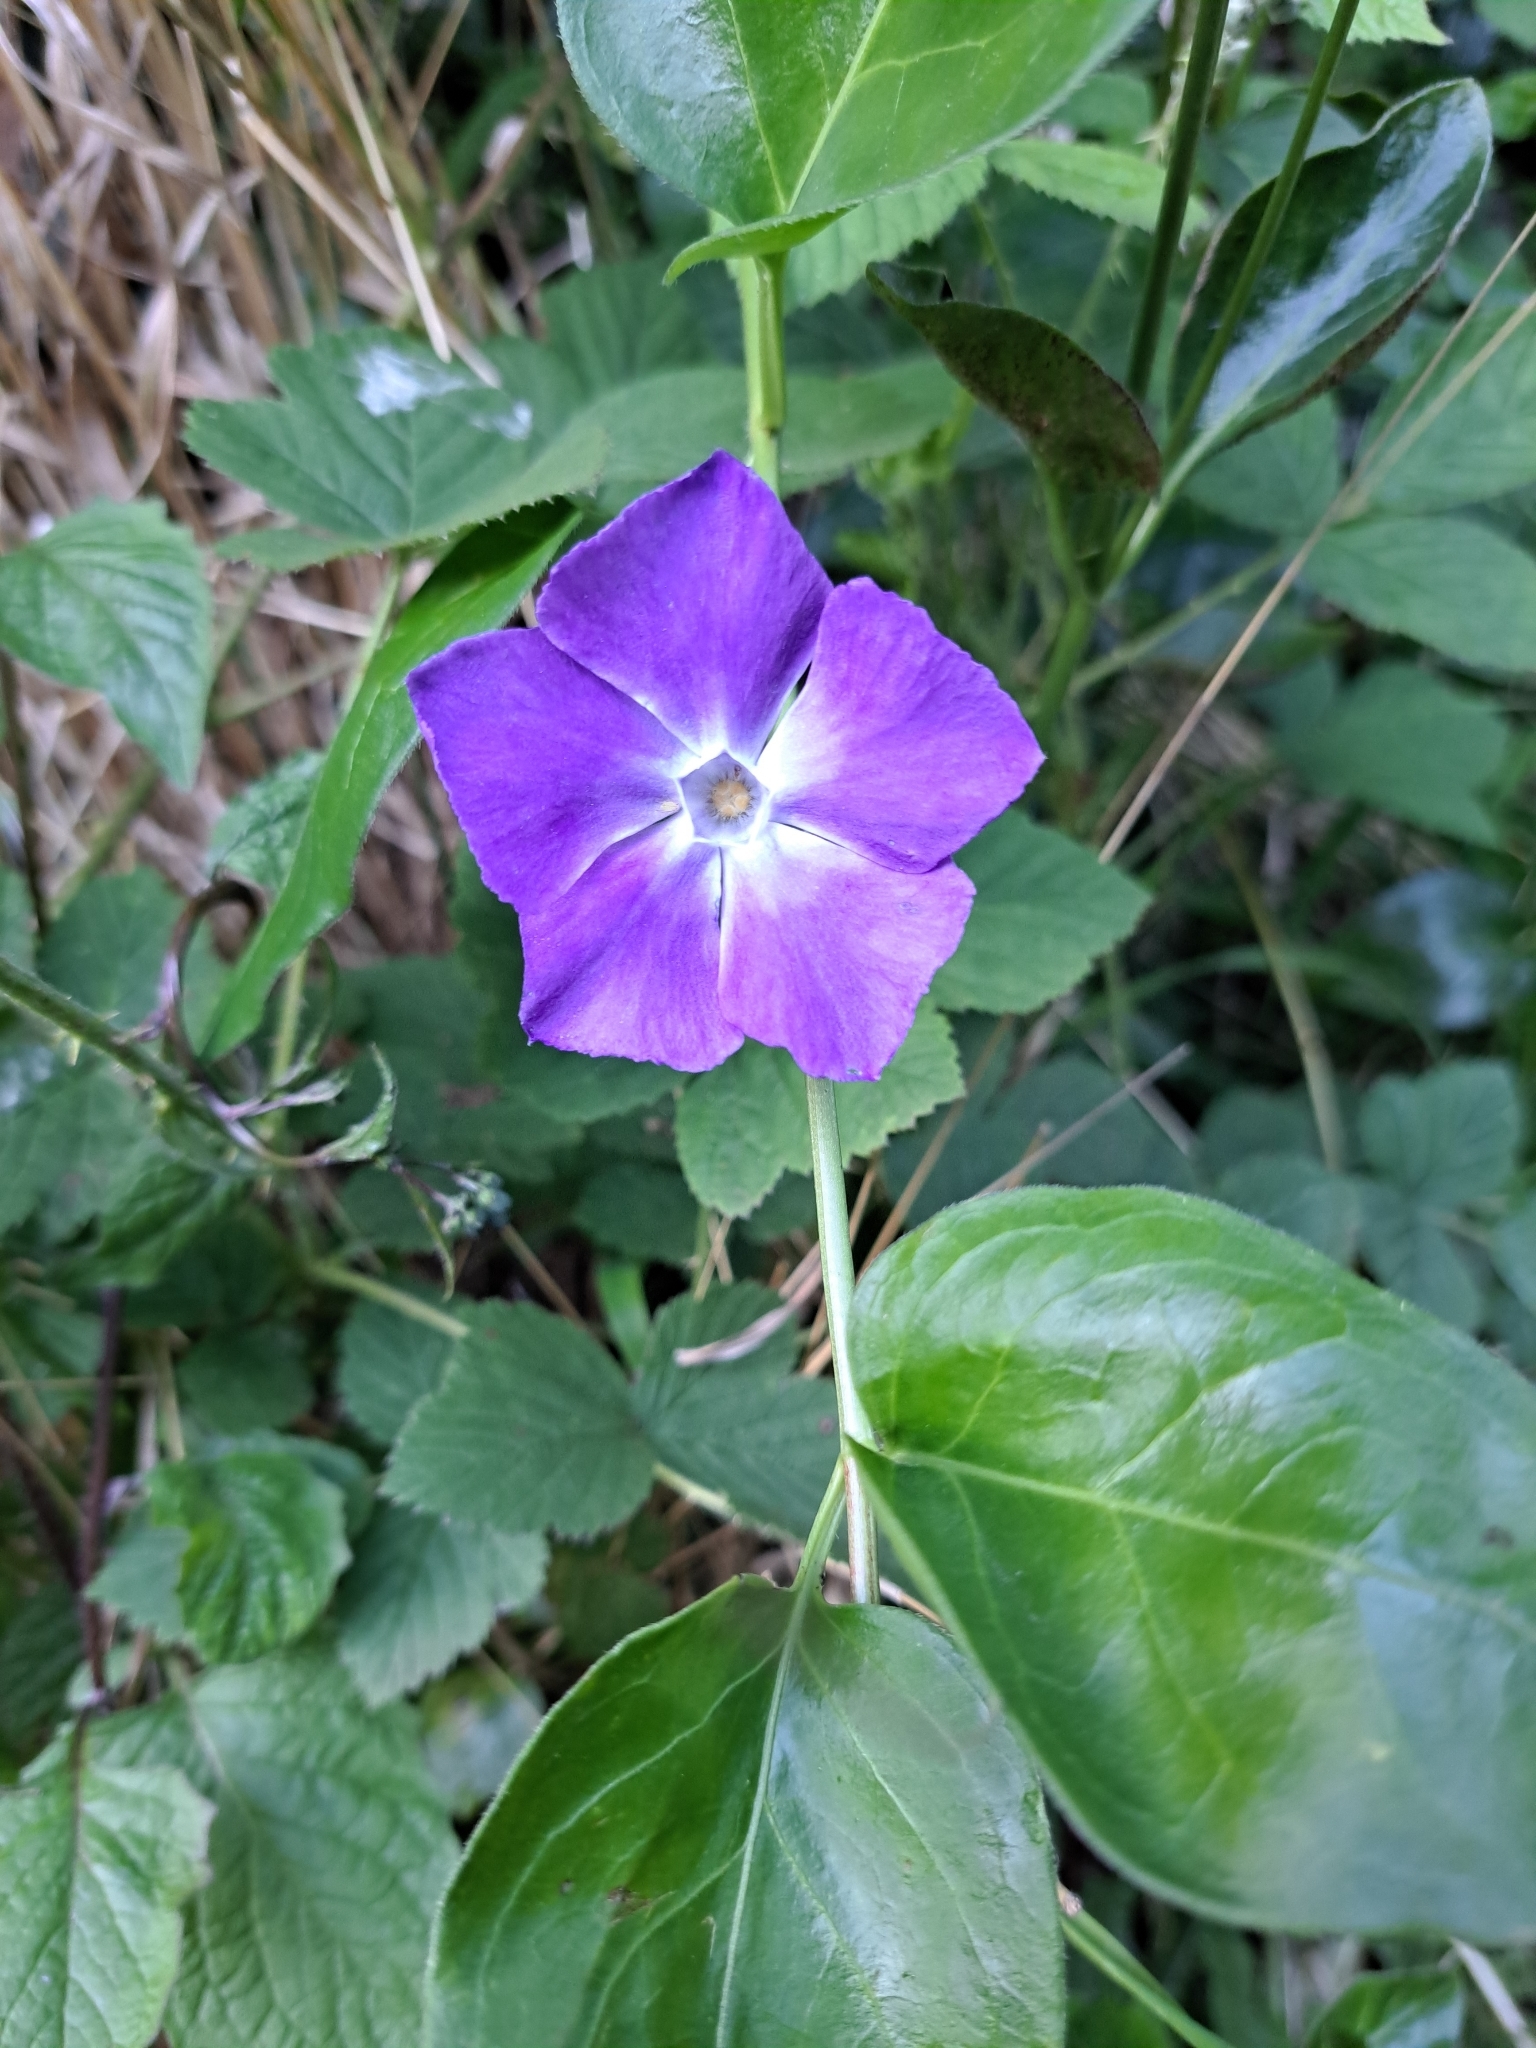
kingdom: Plantae
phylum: Tracheophyta
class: Magnoliopsida
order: Gentianales
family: Apocynaceae
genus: Vinca
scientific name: Vinca major
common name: Greater periwinkle
